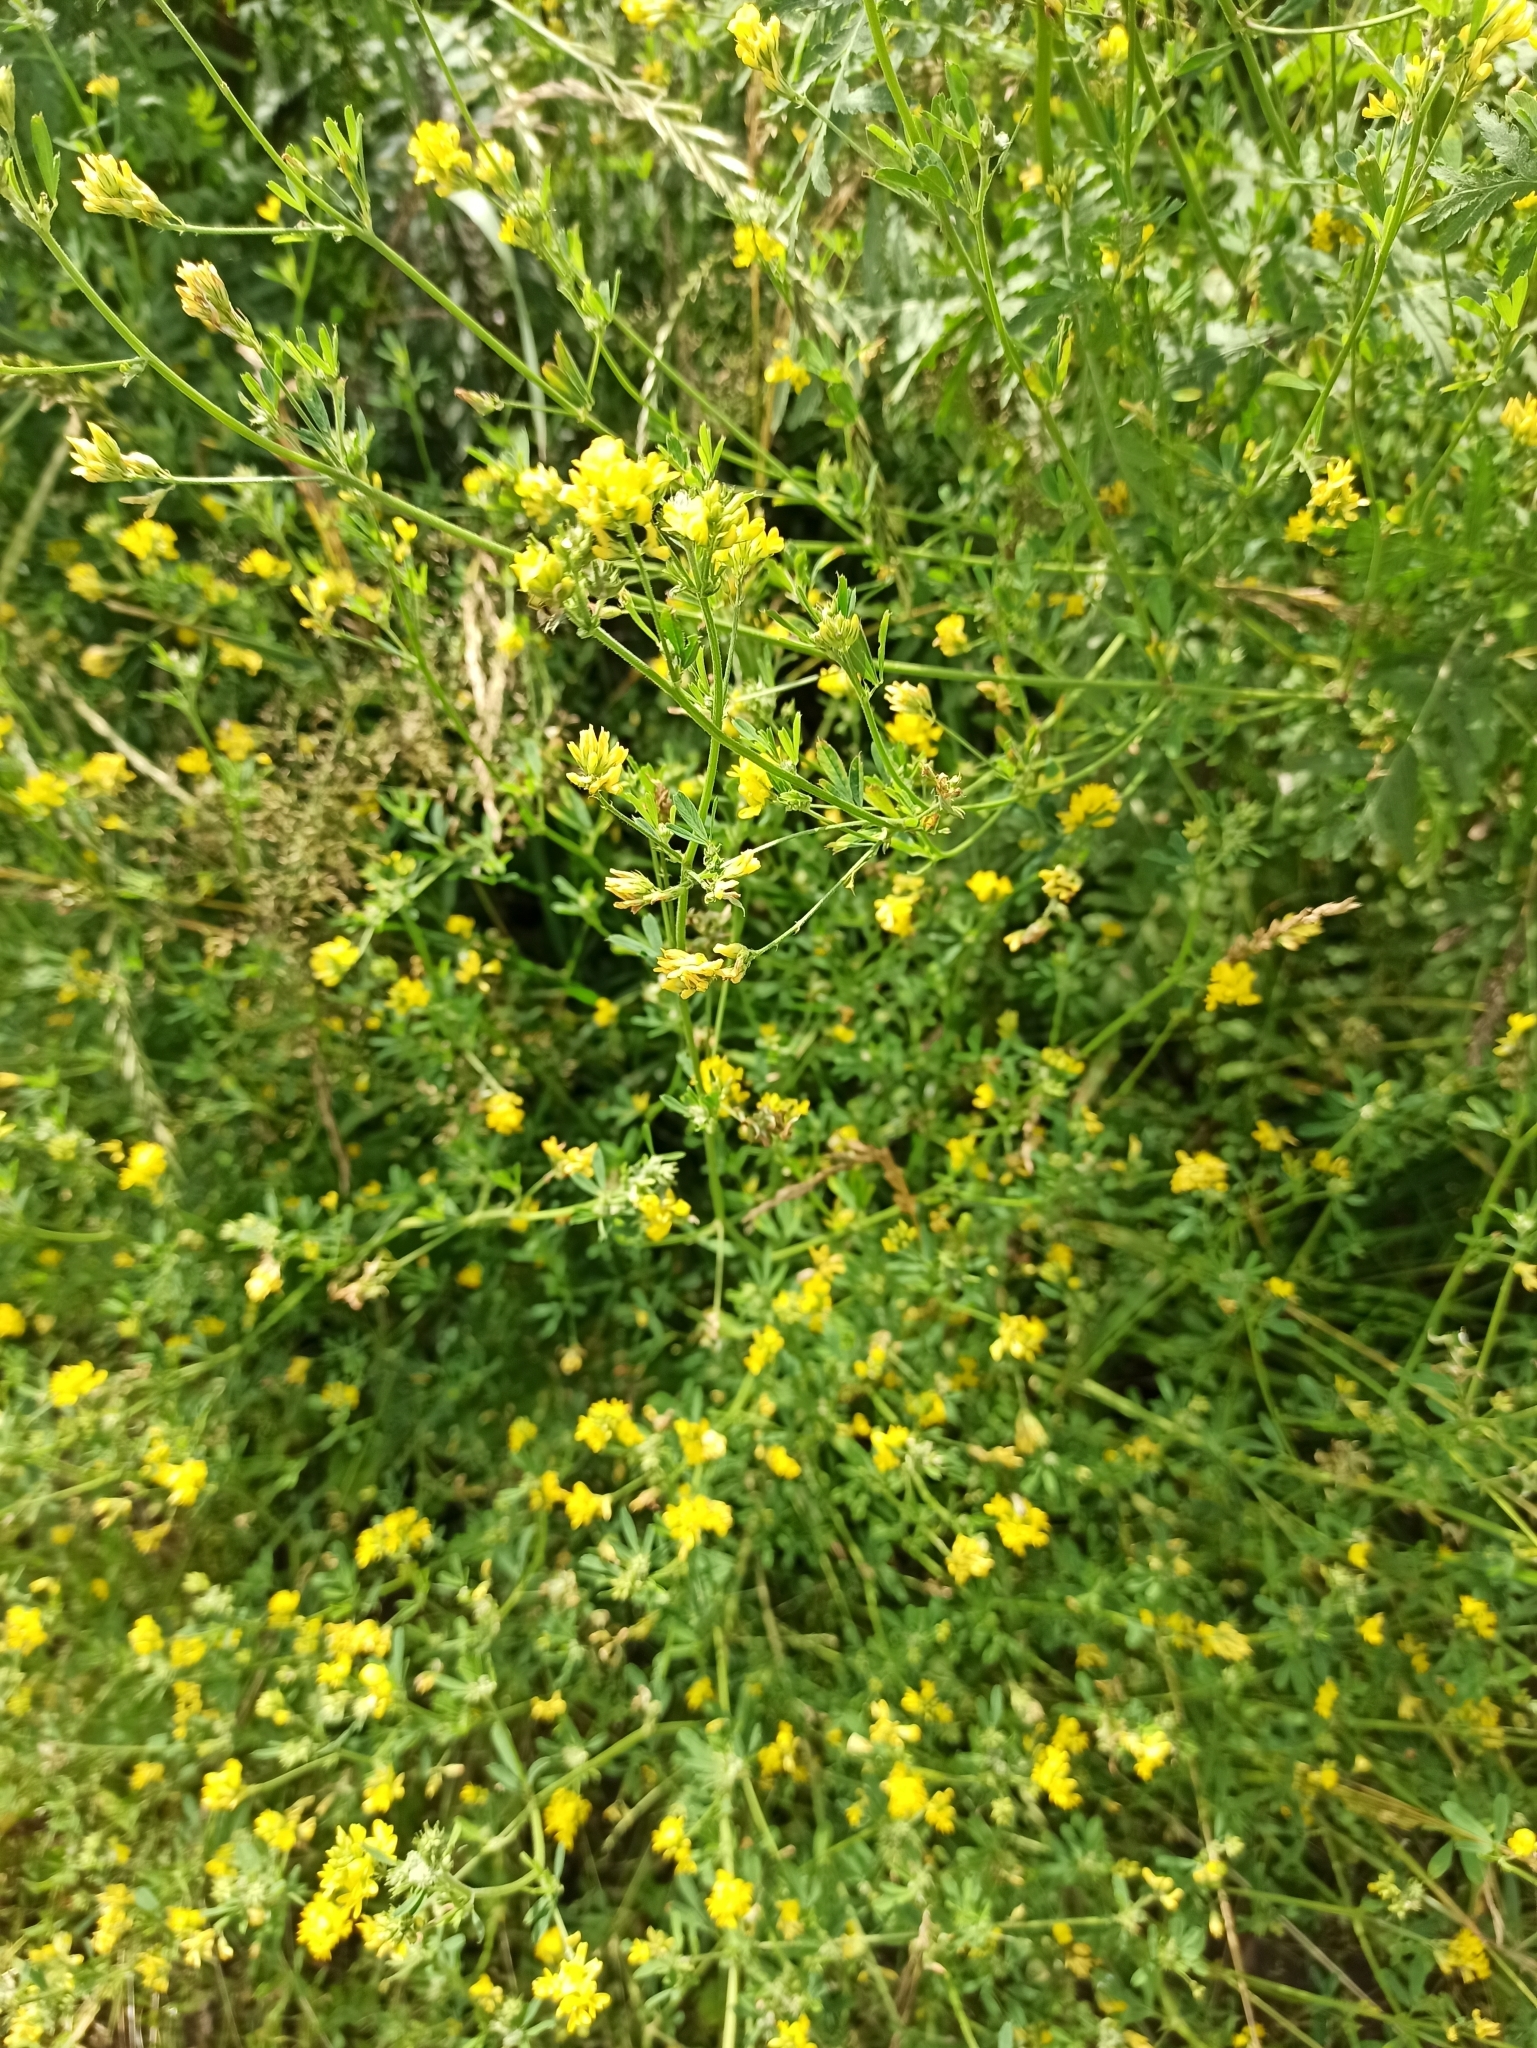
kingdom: Plantae
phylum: Tracheophyta
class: Magnoliopsida
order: Fabales
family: Fabaceae
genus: Medicago
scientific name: Medicago falcata
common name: Sickle medick
